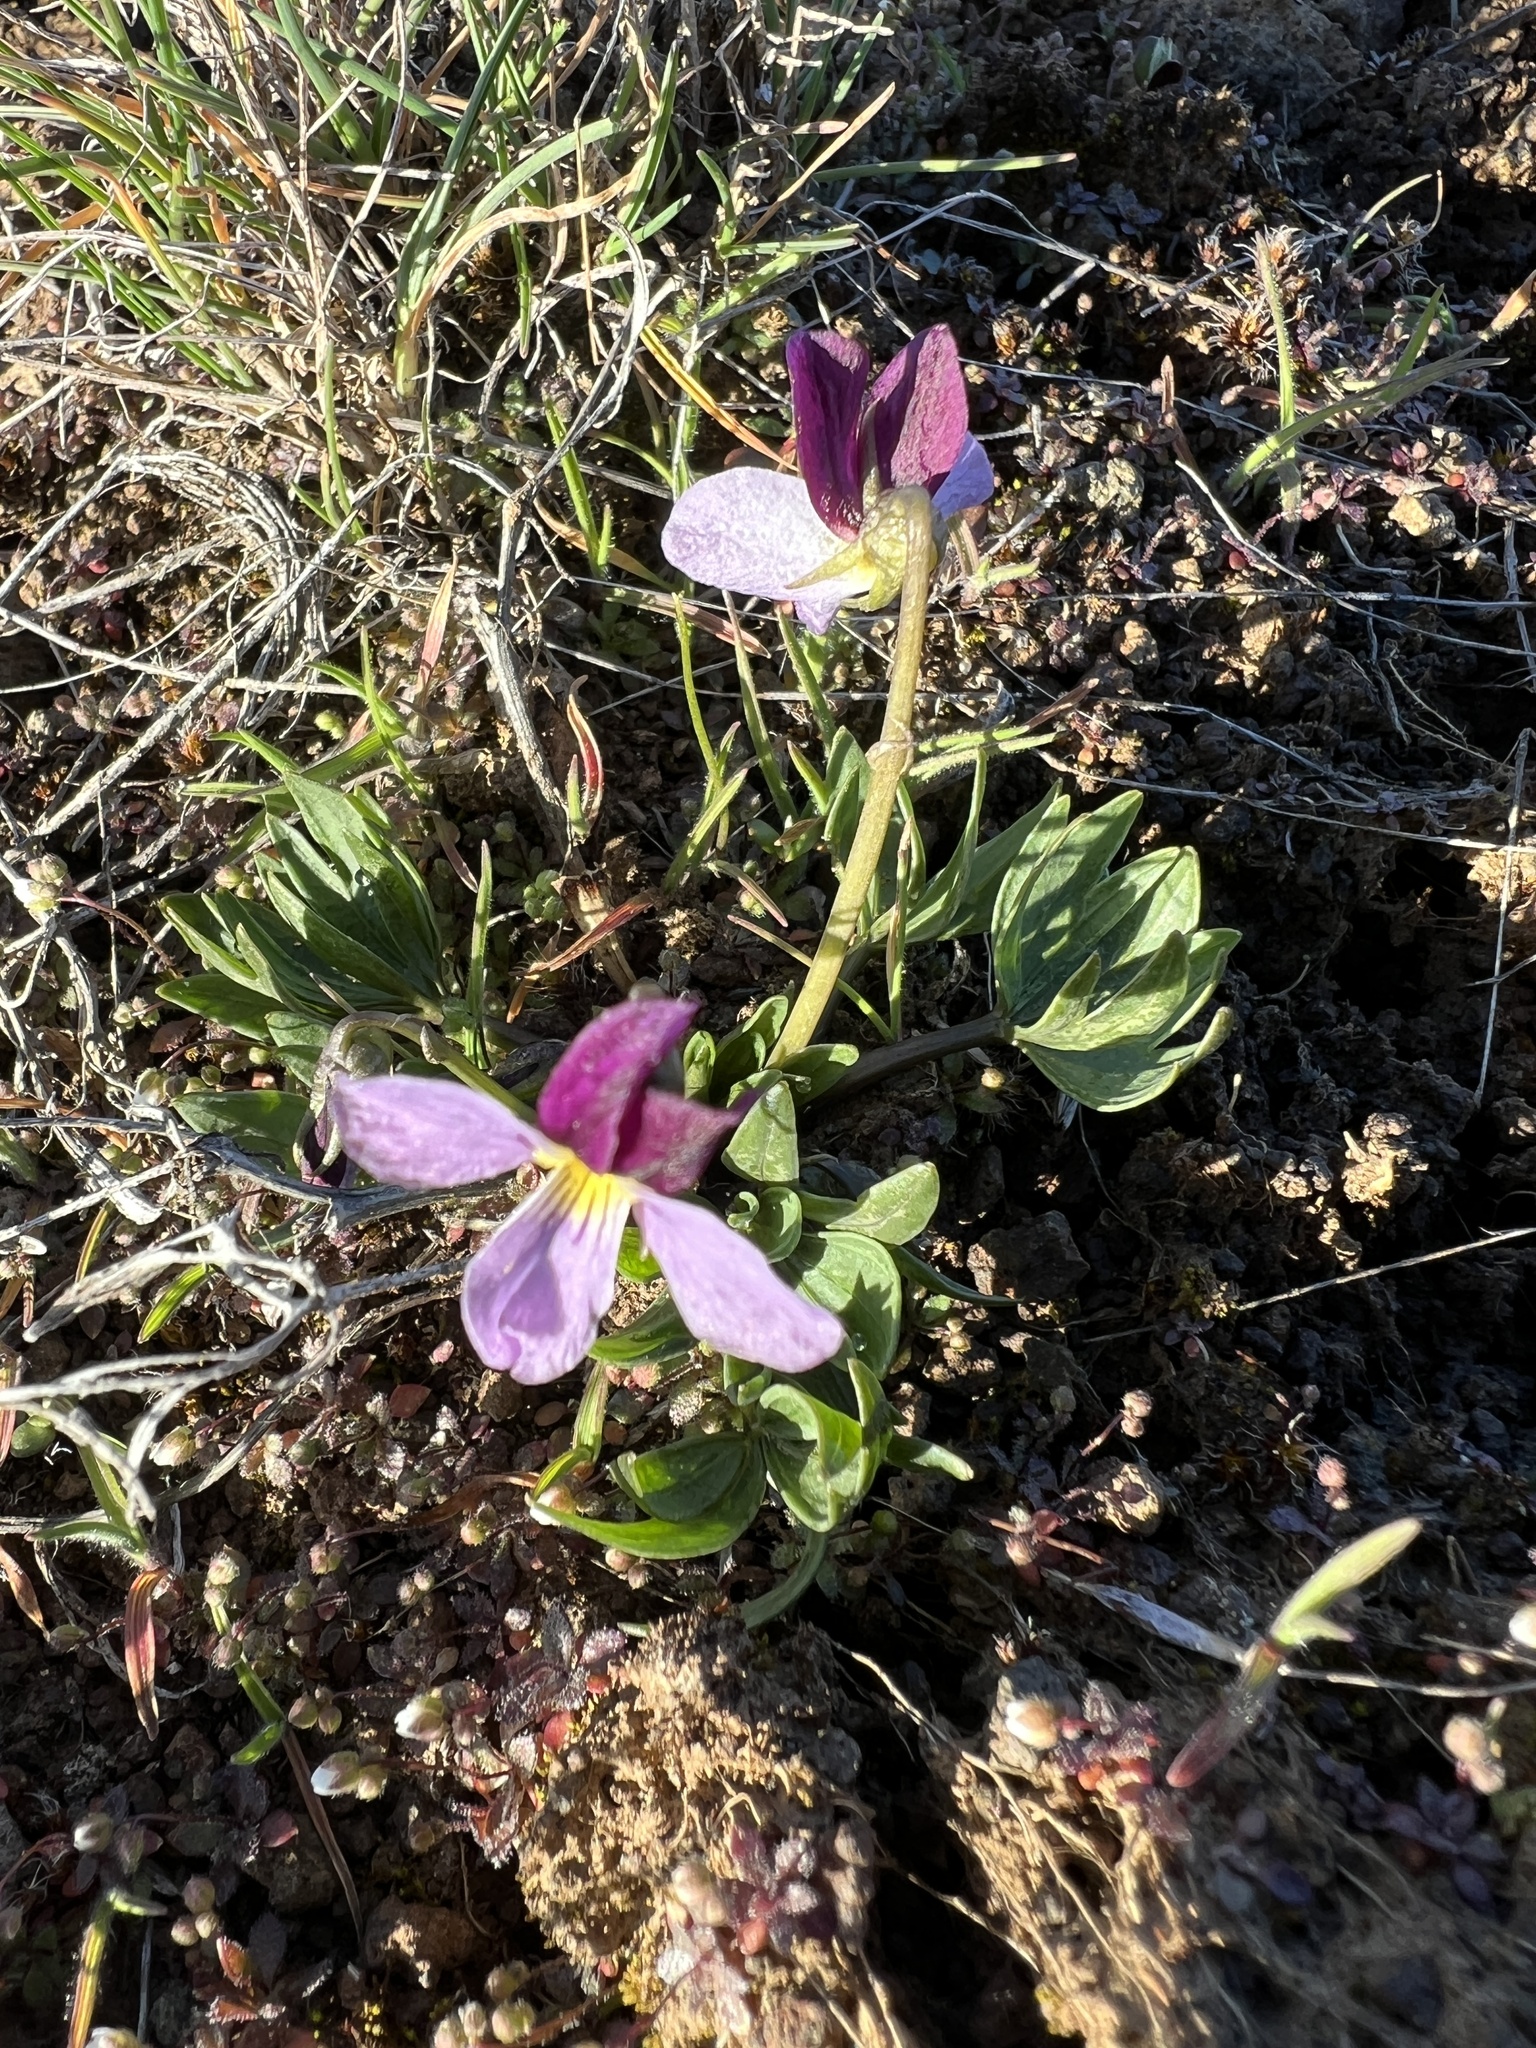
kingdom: Plantae
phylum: Tracheophyta
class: Magnoliopsida
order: Malpighiales
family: Violaceae
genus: Viola
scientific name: Viola trinervata
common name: Sagebrush violet
